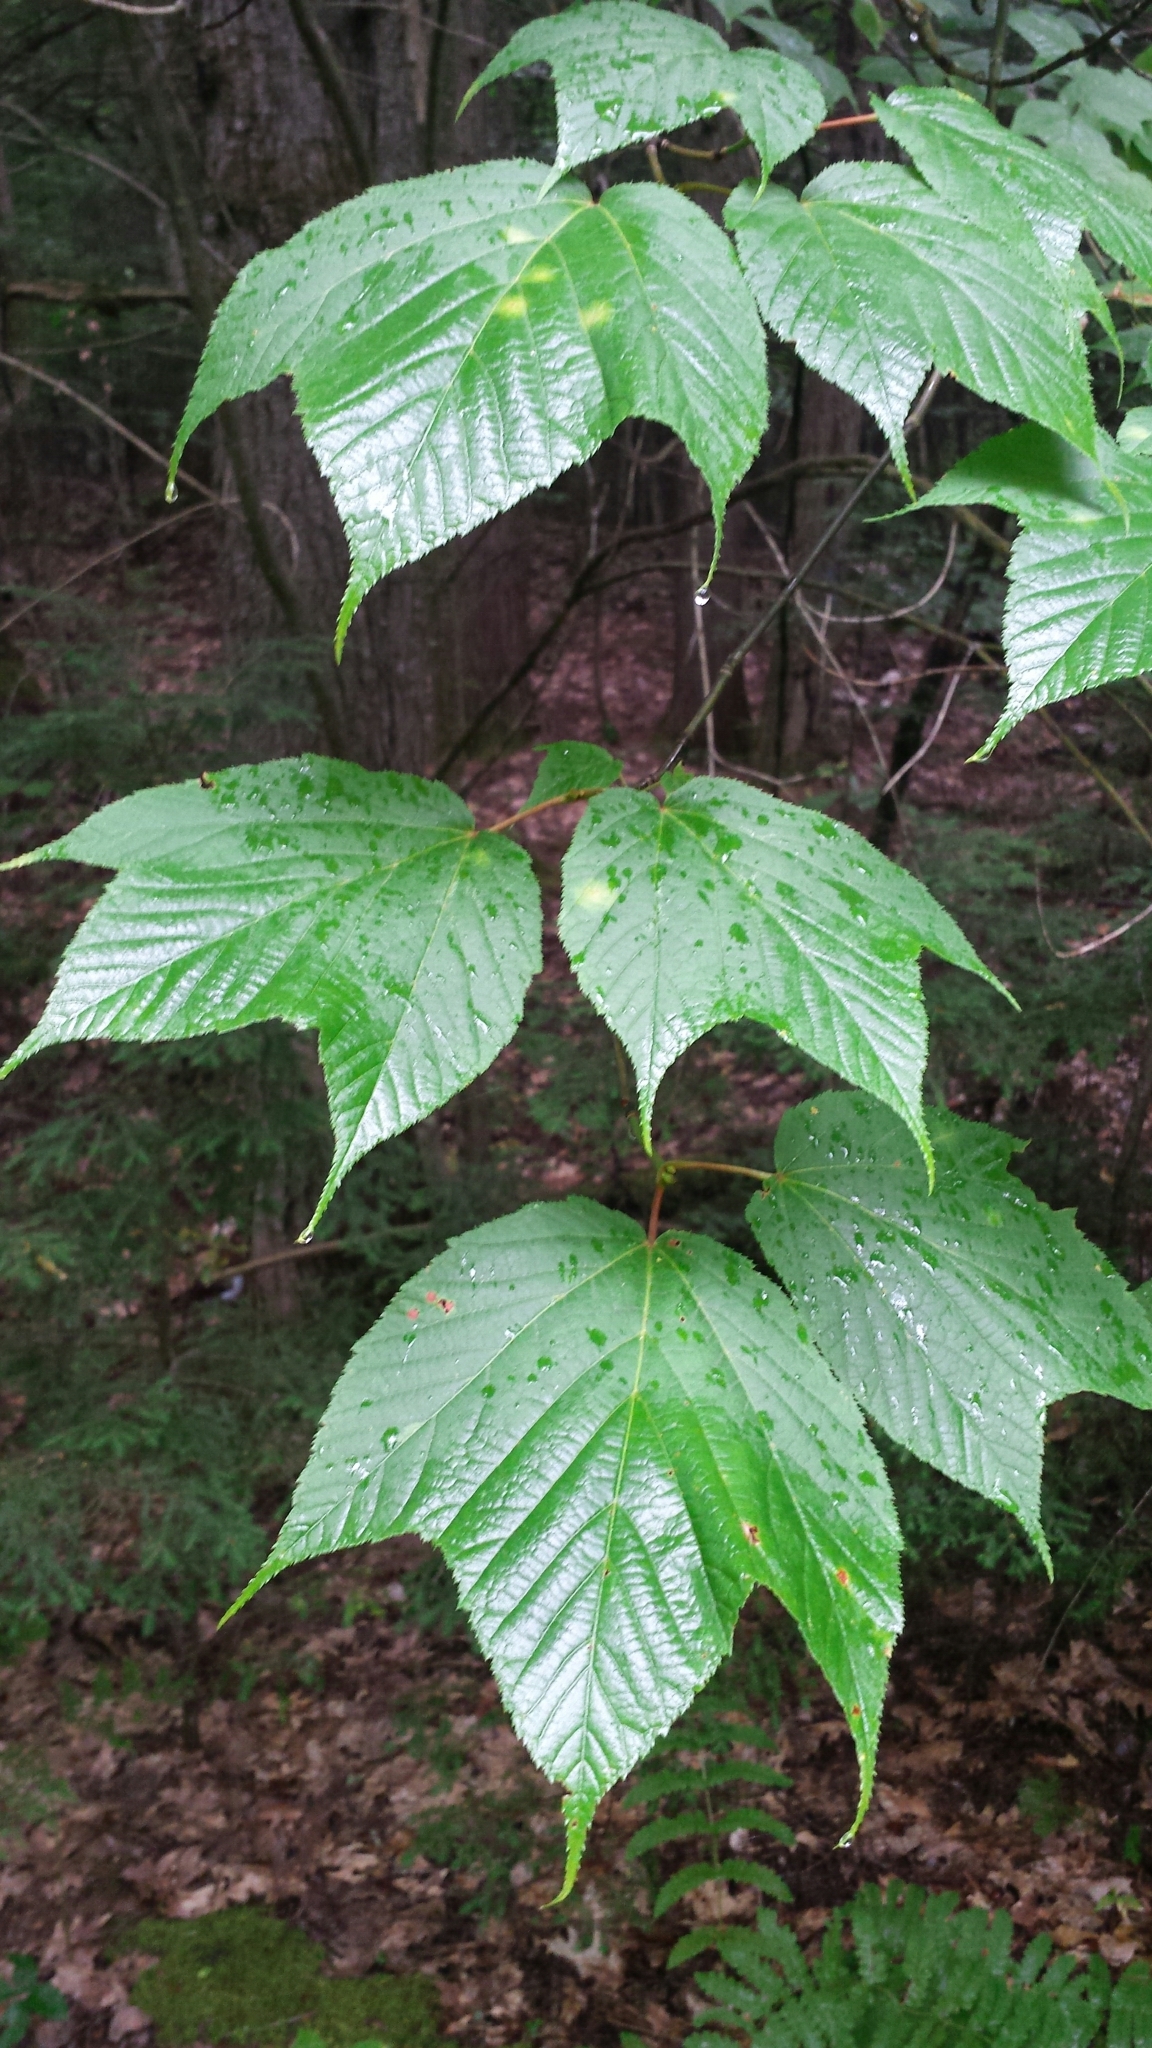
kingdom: Plantae
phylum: Tracheophyta
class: Magnoliopsida
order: Sapindales
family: Sapindaceae
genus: Acer
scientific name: Acer pensylvanicum
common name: Moosewood
